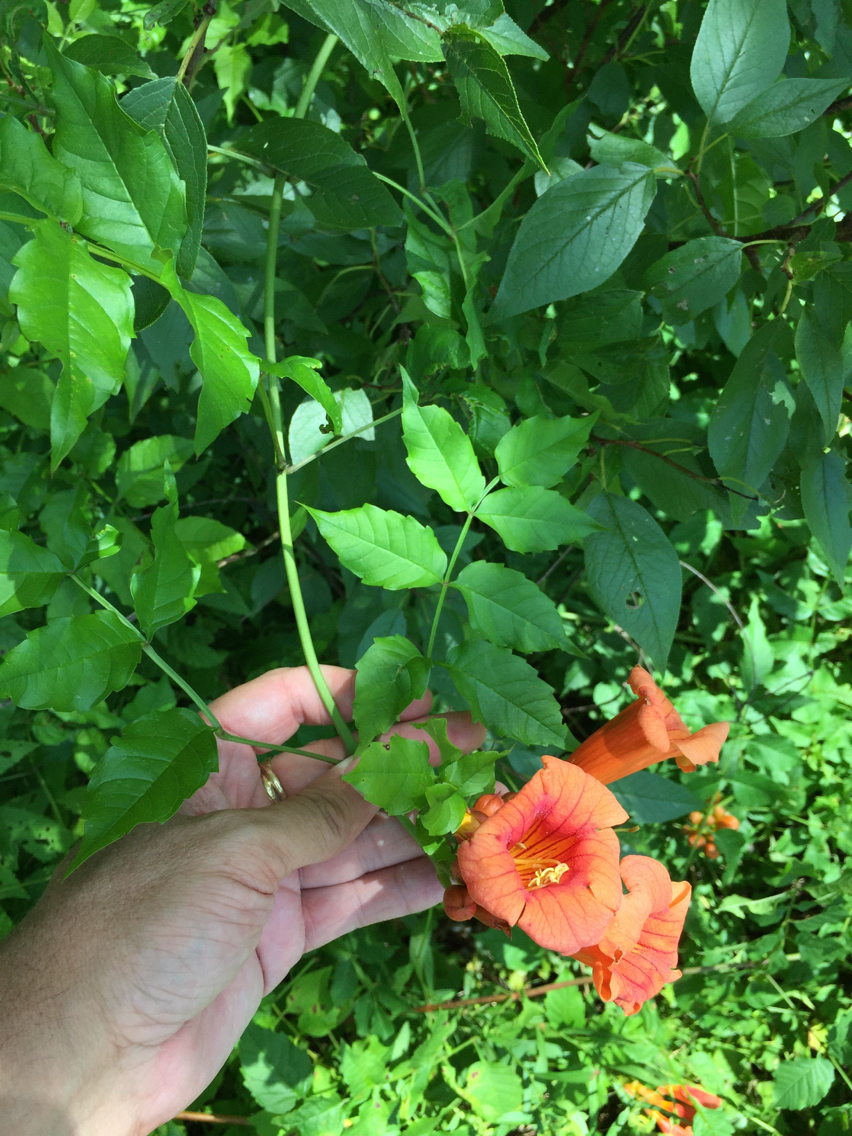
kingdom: Plantae
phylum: Tracheophyta
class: Magnoliopsida
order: Lamiales
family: Bignoniaceae
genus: Campsis
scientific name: Campsis radicans
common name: Trumpet-creeper
